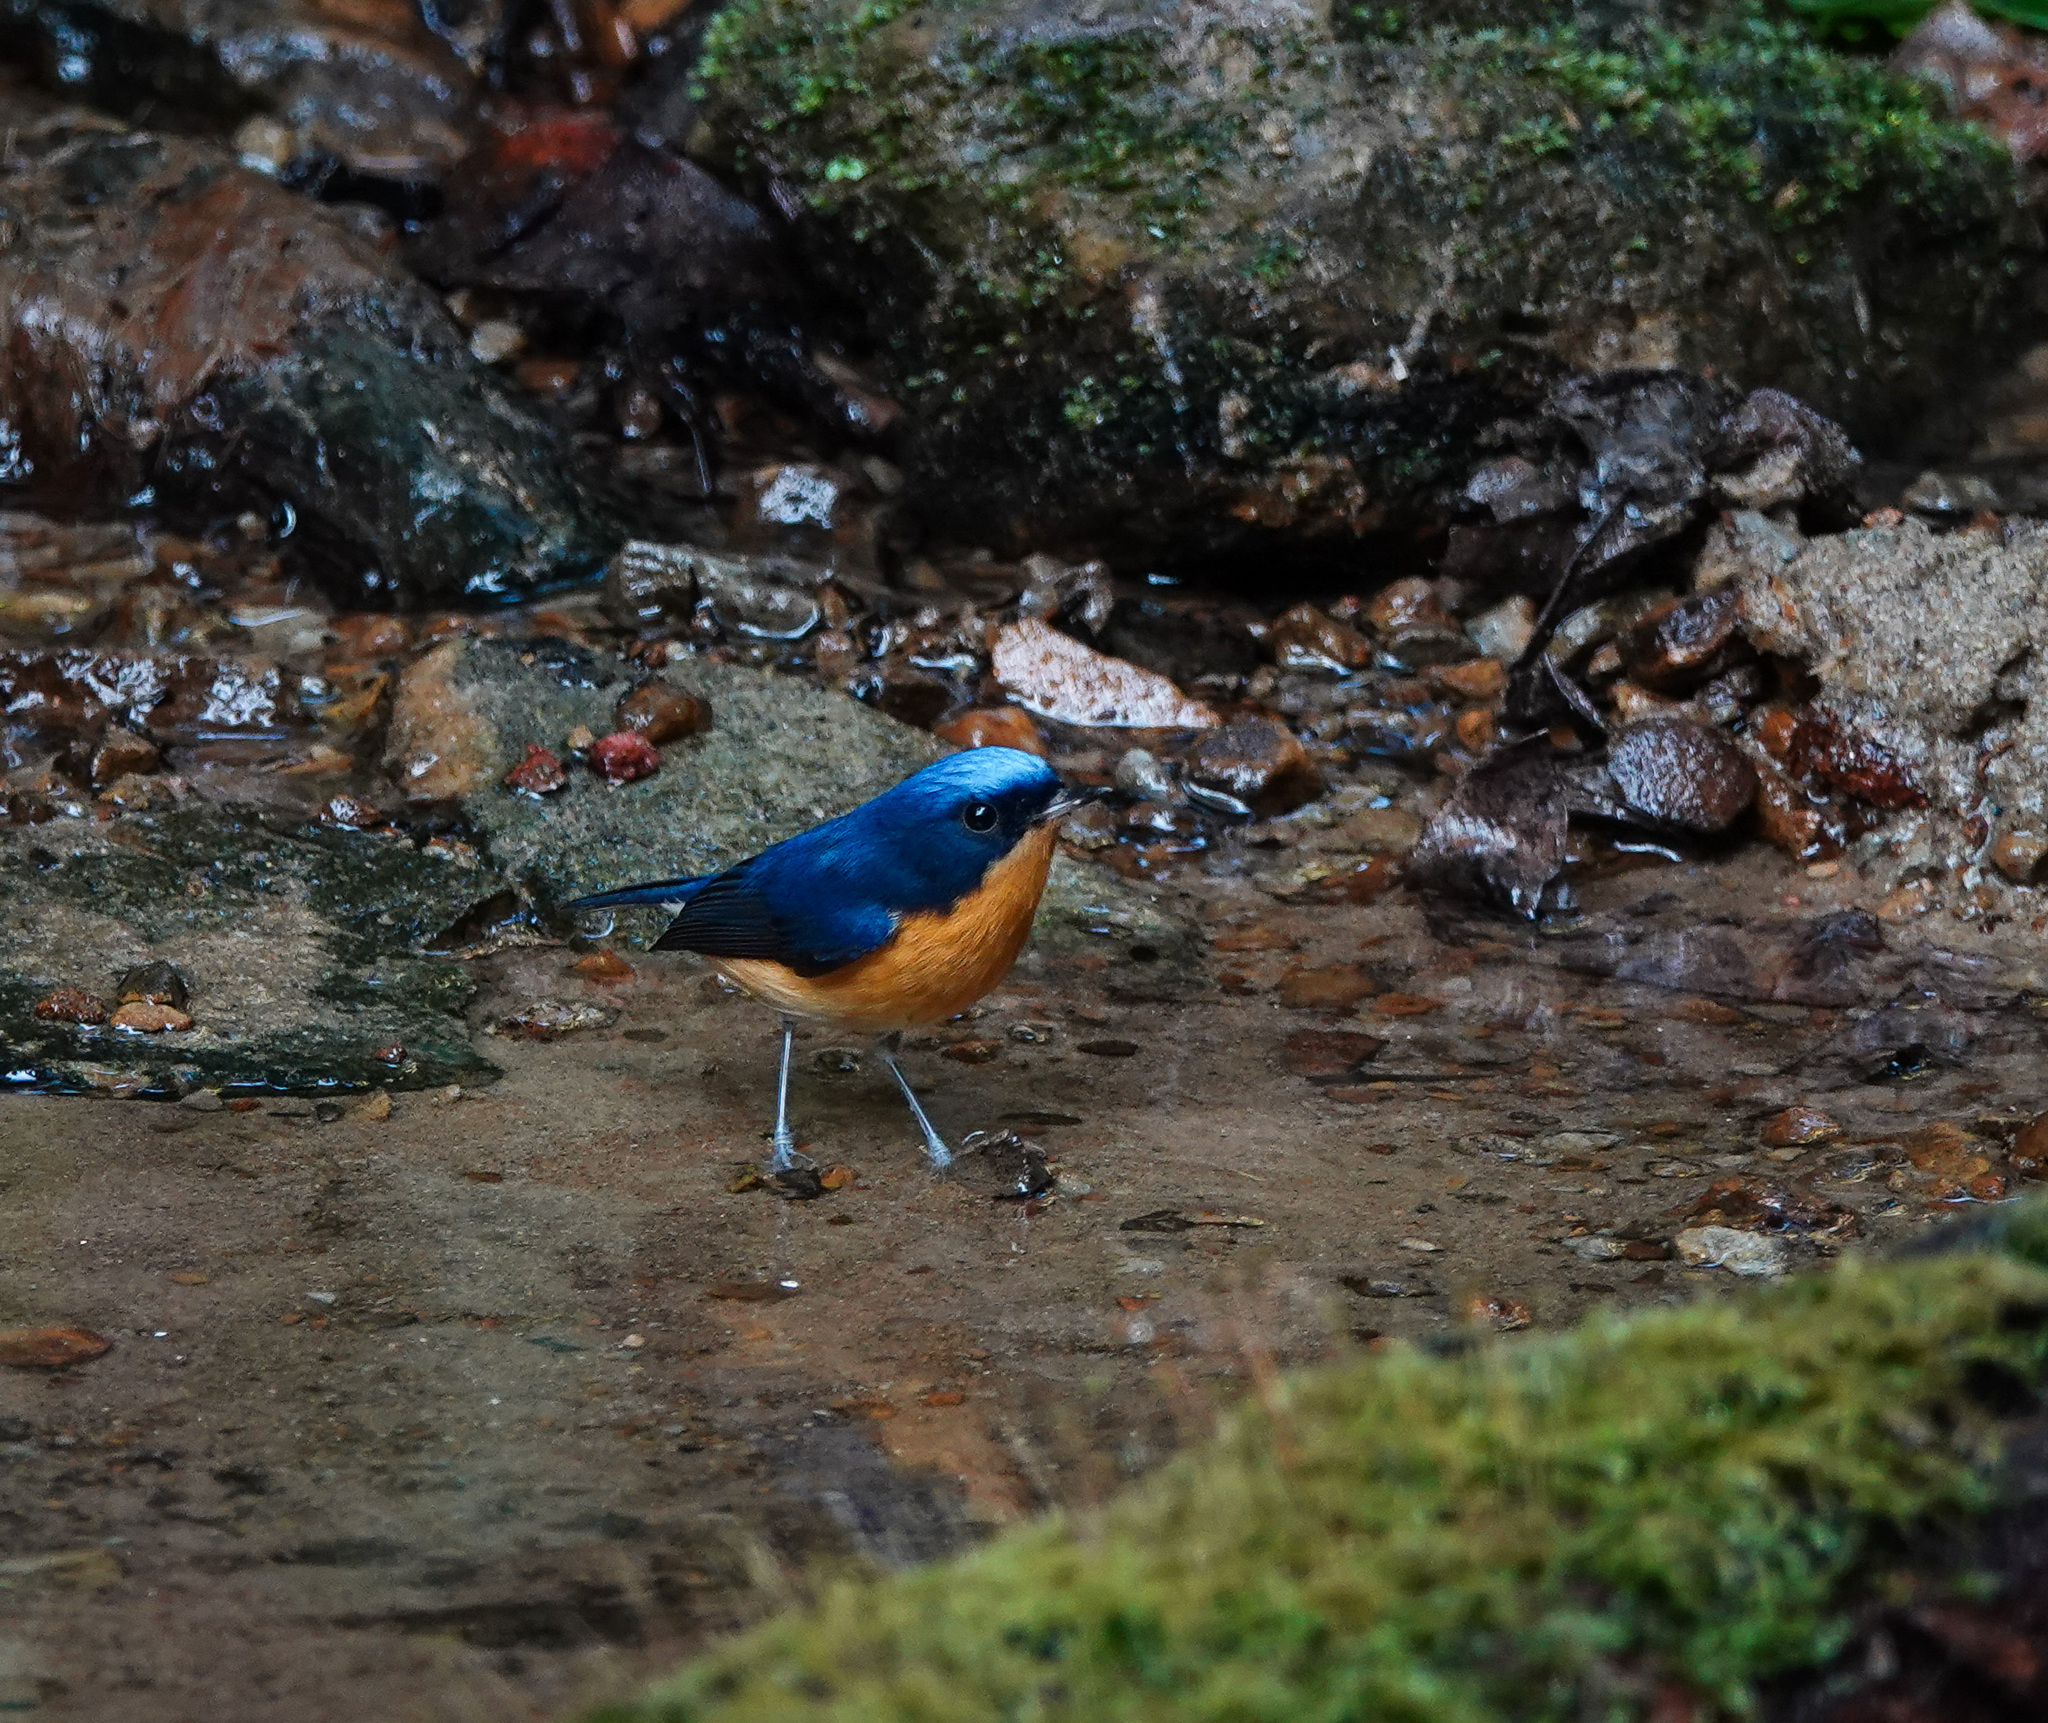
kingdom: Animalia
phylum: Chordata
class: Aves
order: Passeriformes
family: Muscicapidae
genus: Ficedula
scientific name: Ficedula hodgsoni
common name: Pygmy flycatcher
